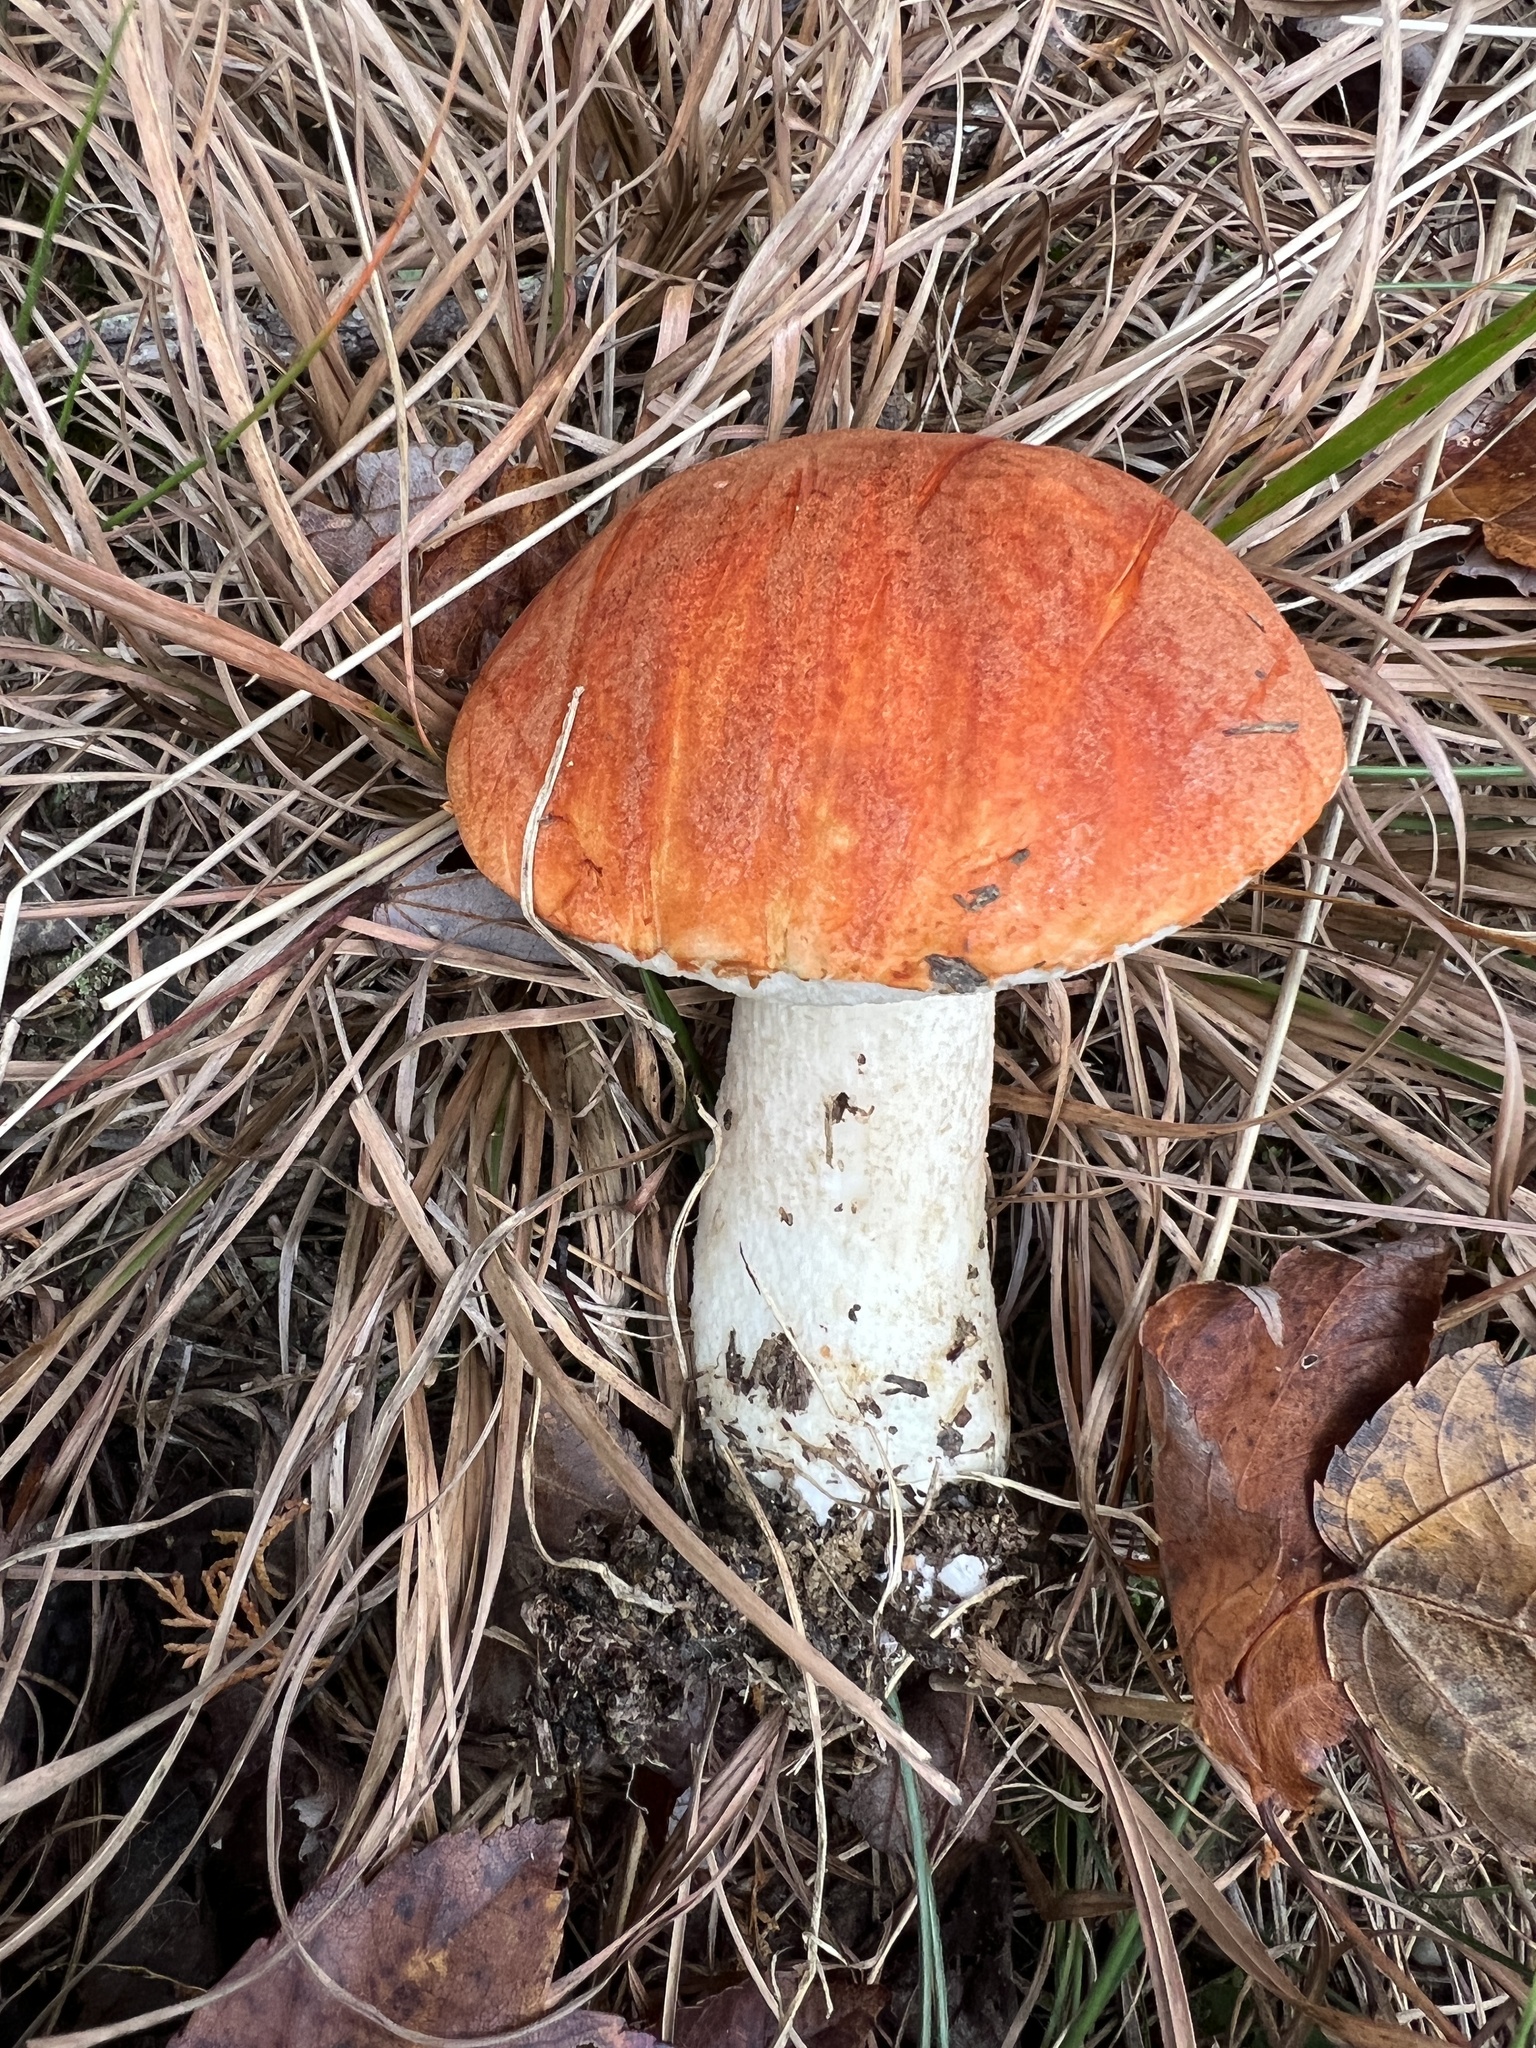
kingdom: Fungi
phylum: Basidiomycota
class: Agaricomycetes
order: Boletales
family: Boletaceae
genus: Leccinum
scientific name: Leccinum aurantiacum
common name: Orange bolete
